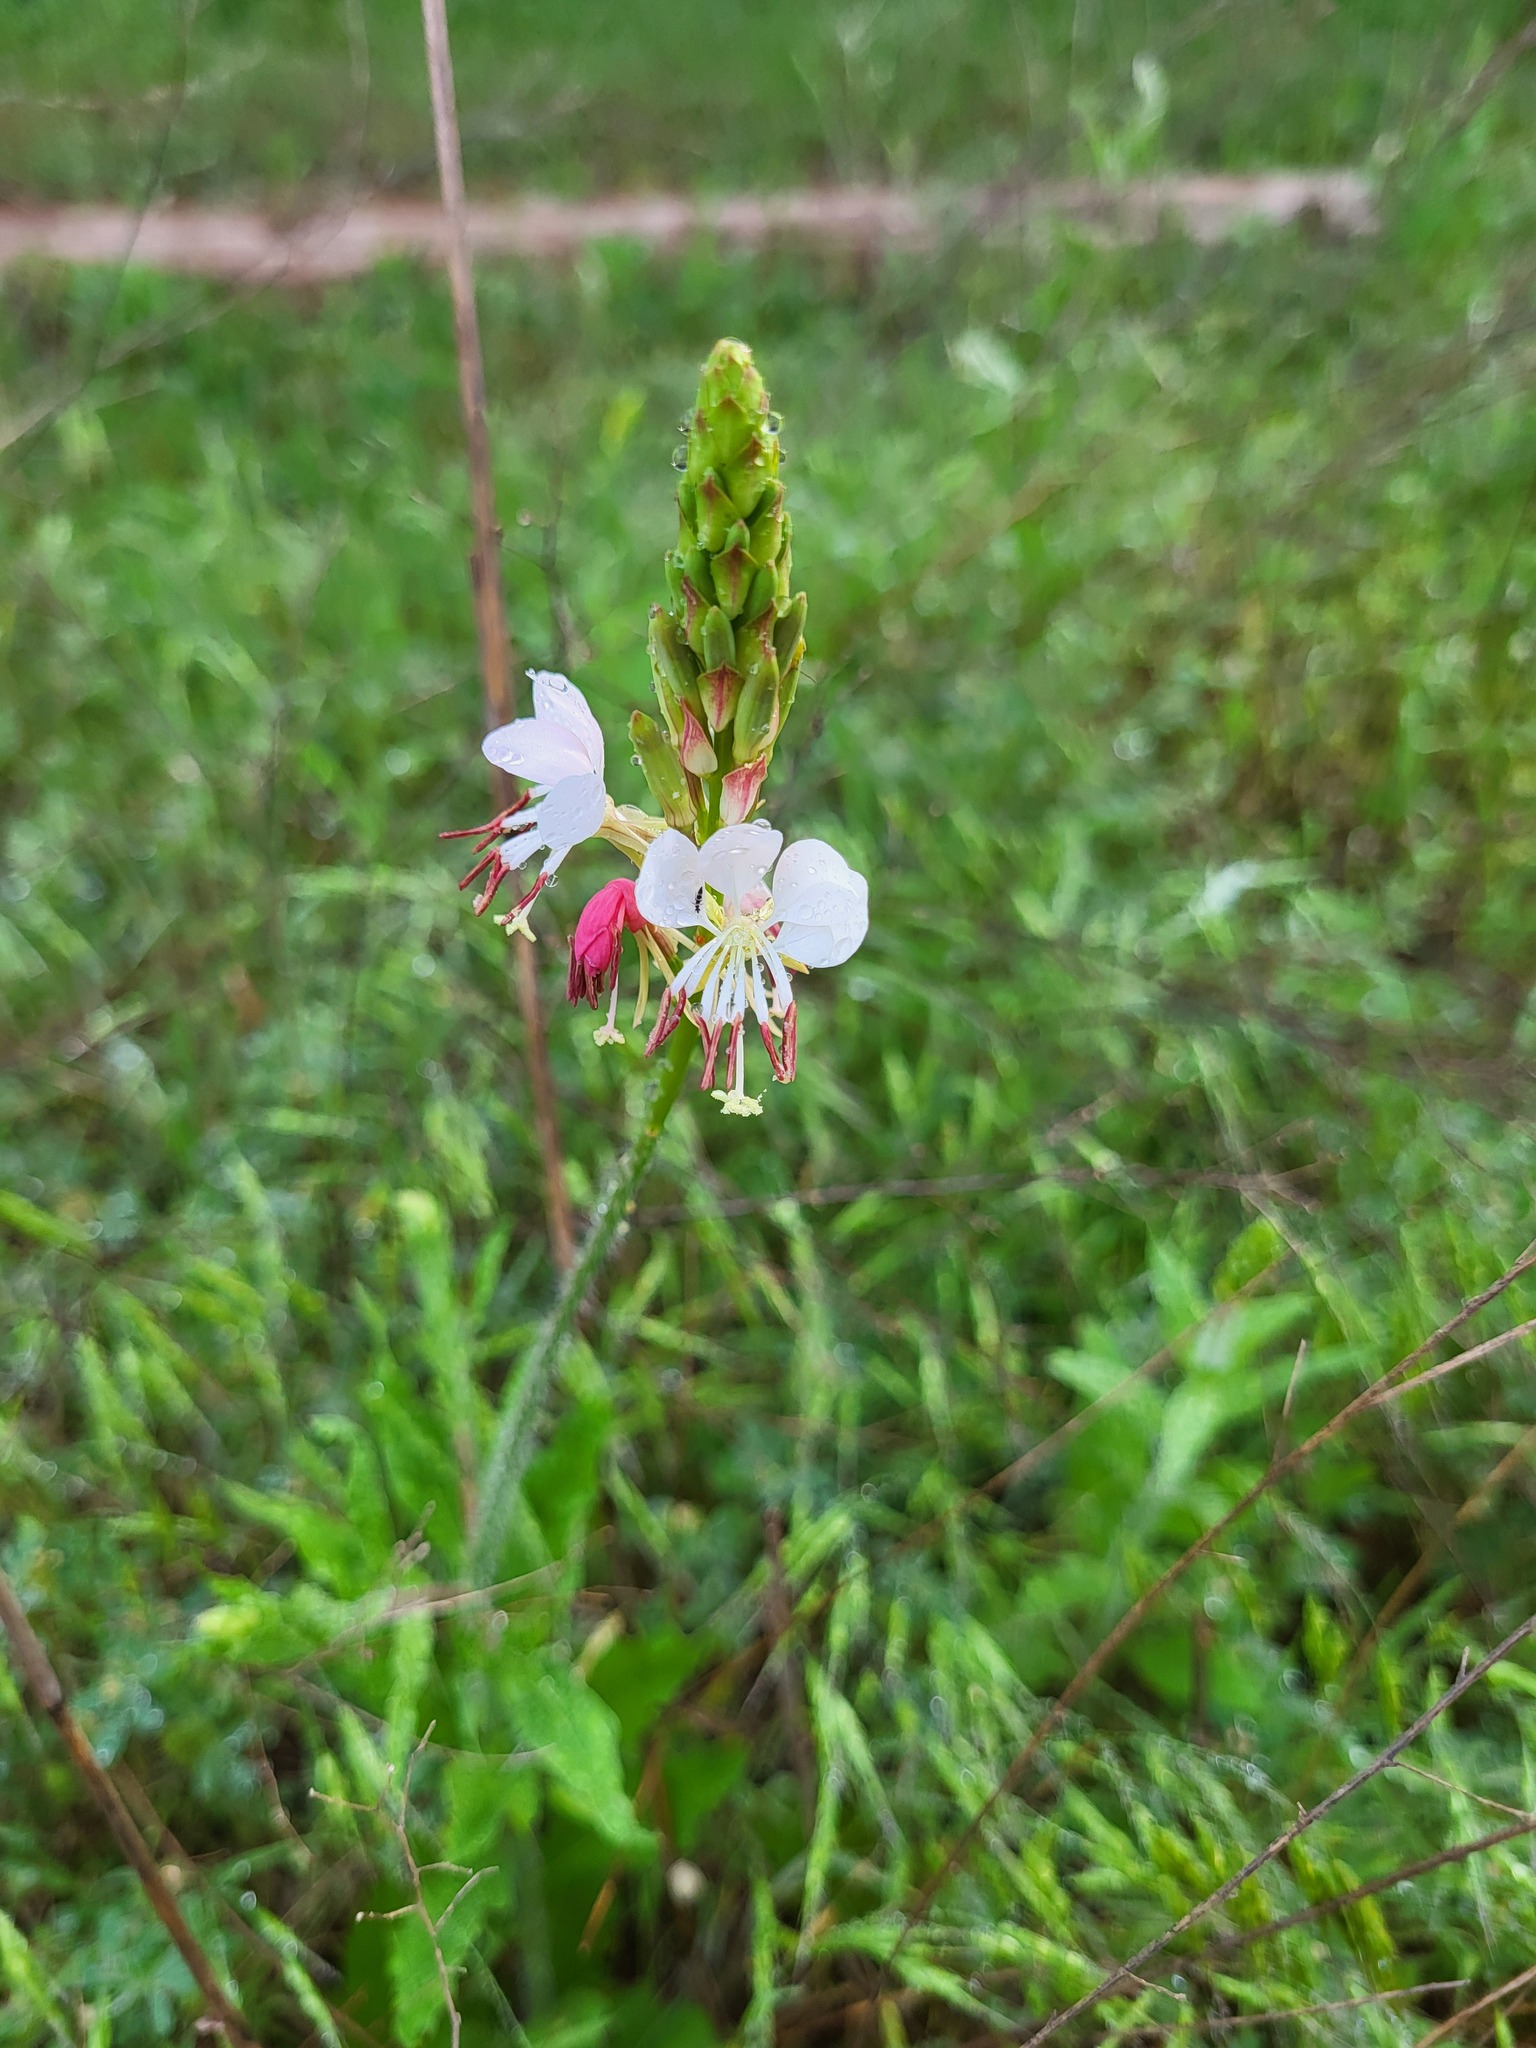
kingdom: Plantae
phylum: Tracheophyta
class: Magnoliopsida
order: Myrtales
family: Onagraceae
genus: Oenothera
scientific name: Oenothera suffulta
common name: Kisses
